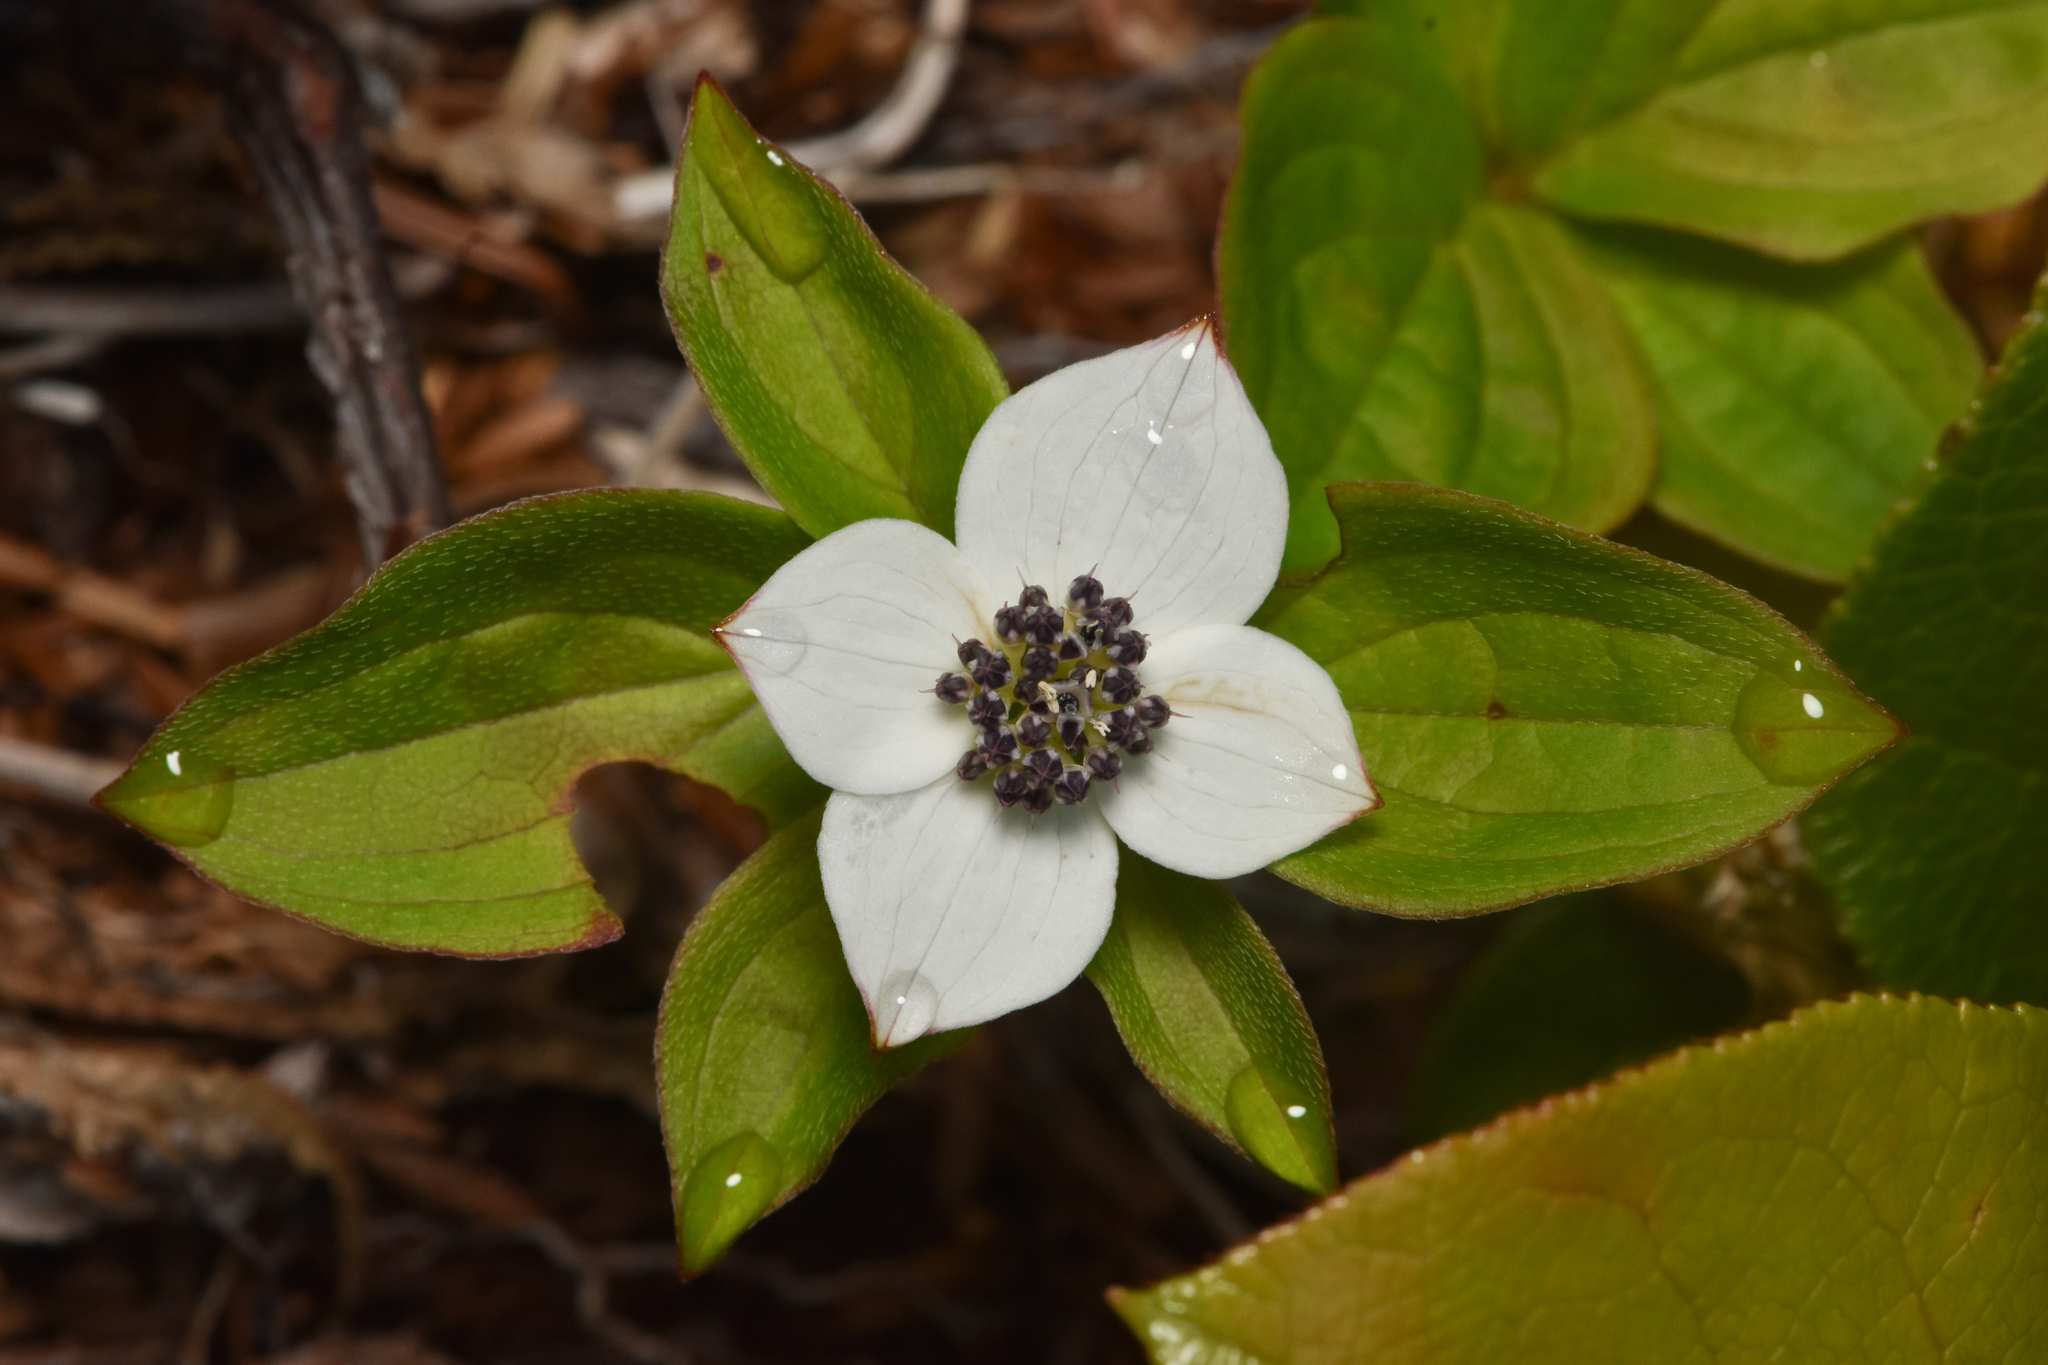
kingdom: Plantae
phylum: Tracheophyta
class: Magnoliopsida
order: Cornales
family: Cornaceae
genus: Cornus
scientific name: Cornus unalaschkensis
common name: Alaska bunchberry
